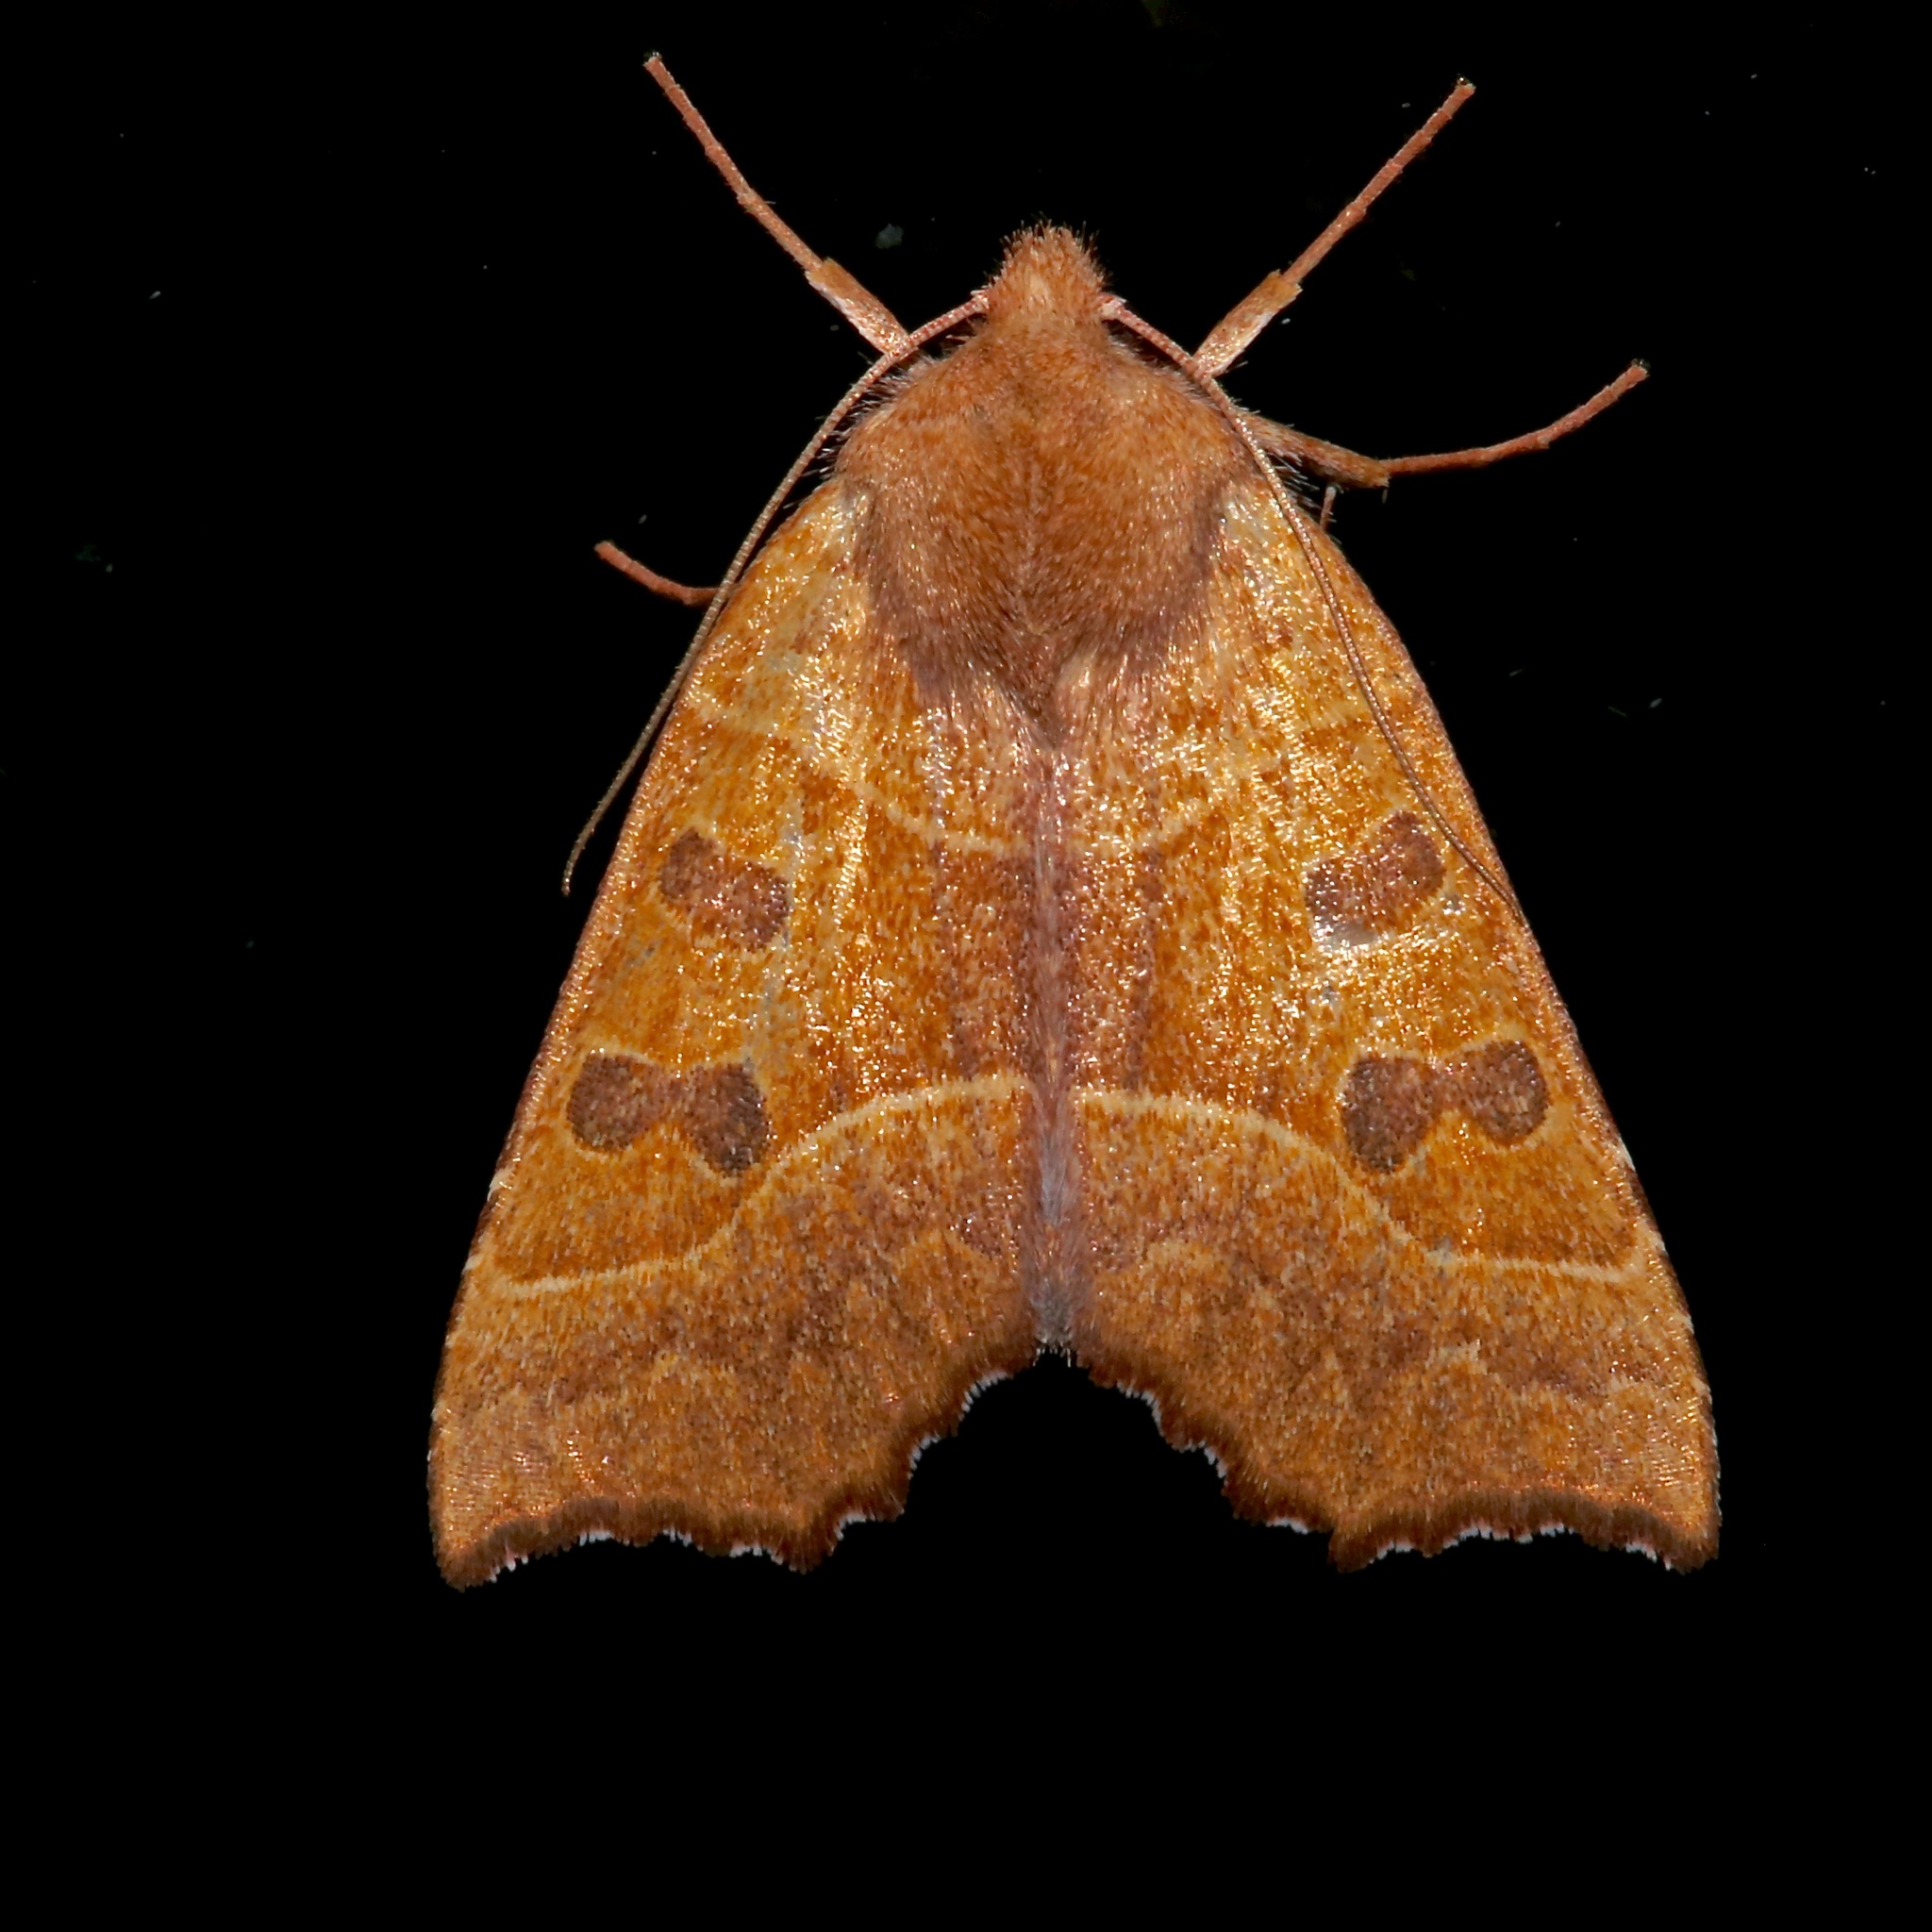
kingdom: Animalia
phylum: Arthropoda
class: Insecta
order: Lepidoptera
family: Noctuidae
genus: Eucirroedia
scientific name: Eucirroedia pampina
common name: Scalloped sallow
